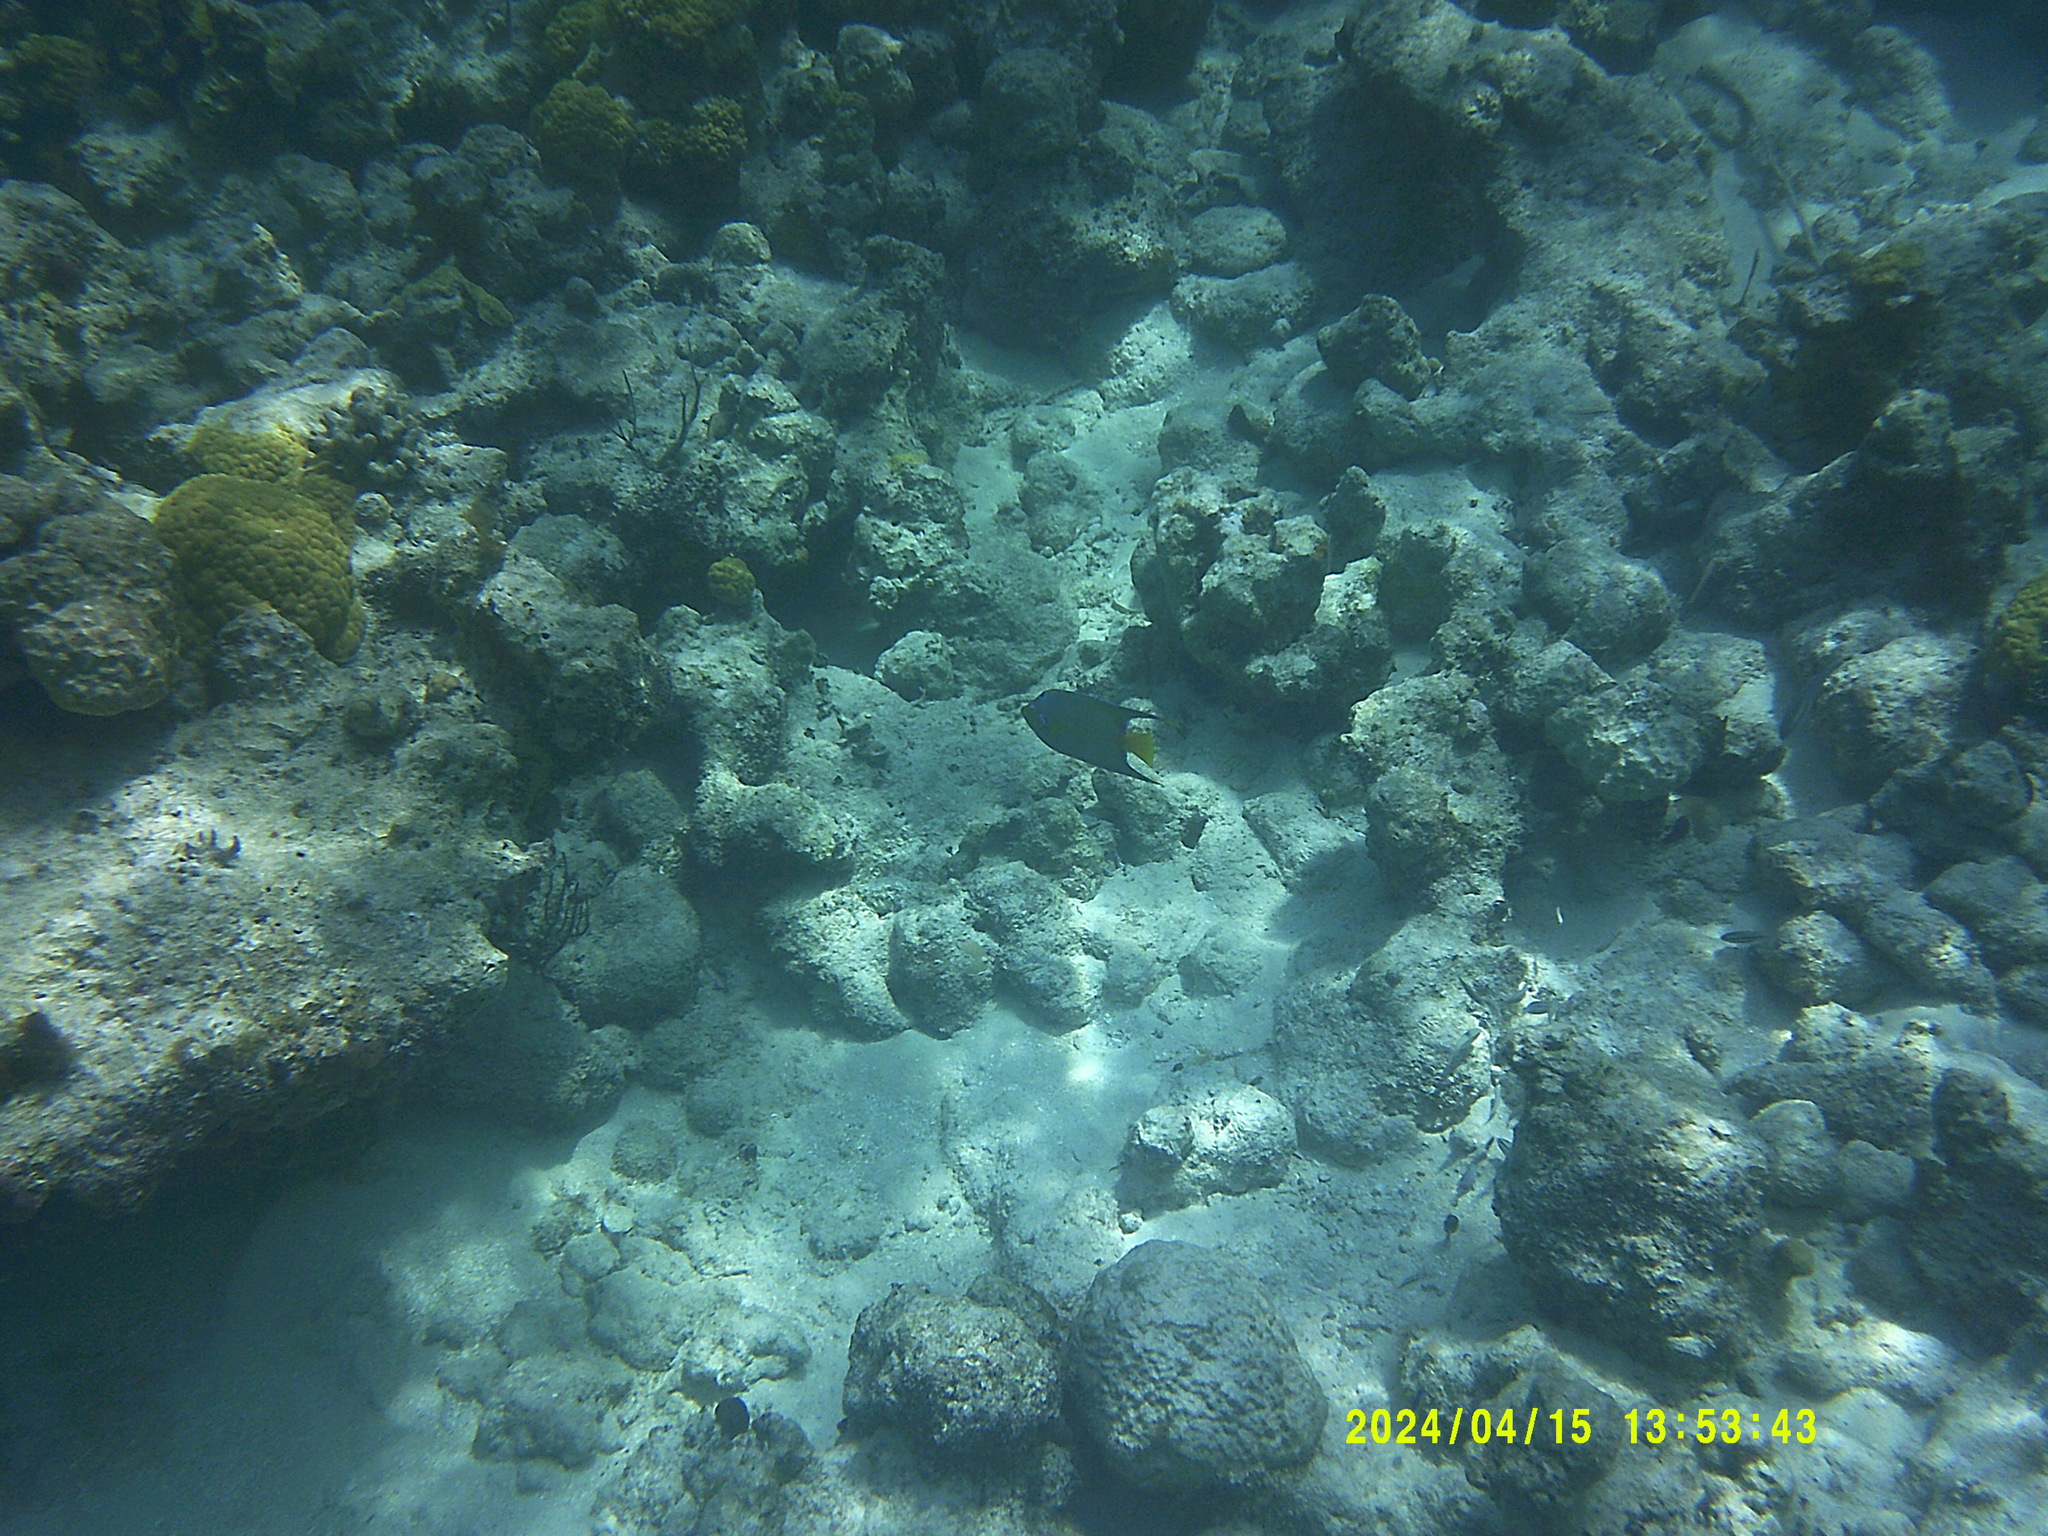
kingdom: Animalia
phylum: Chordata
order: Perciformes
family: Pomacanthidae
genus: Holacanthus
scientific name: Holacanthus ciliaris
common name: Queen angelfish
